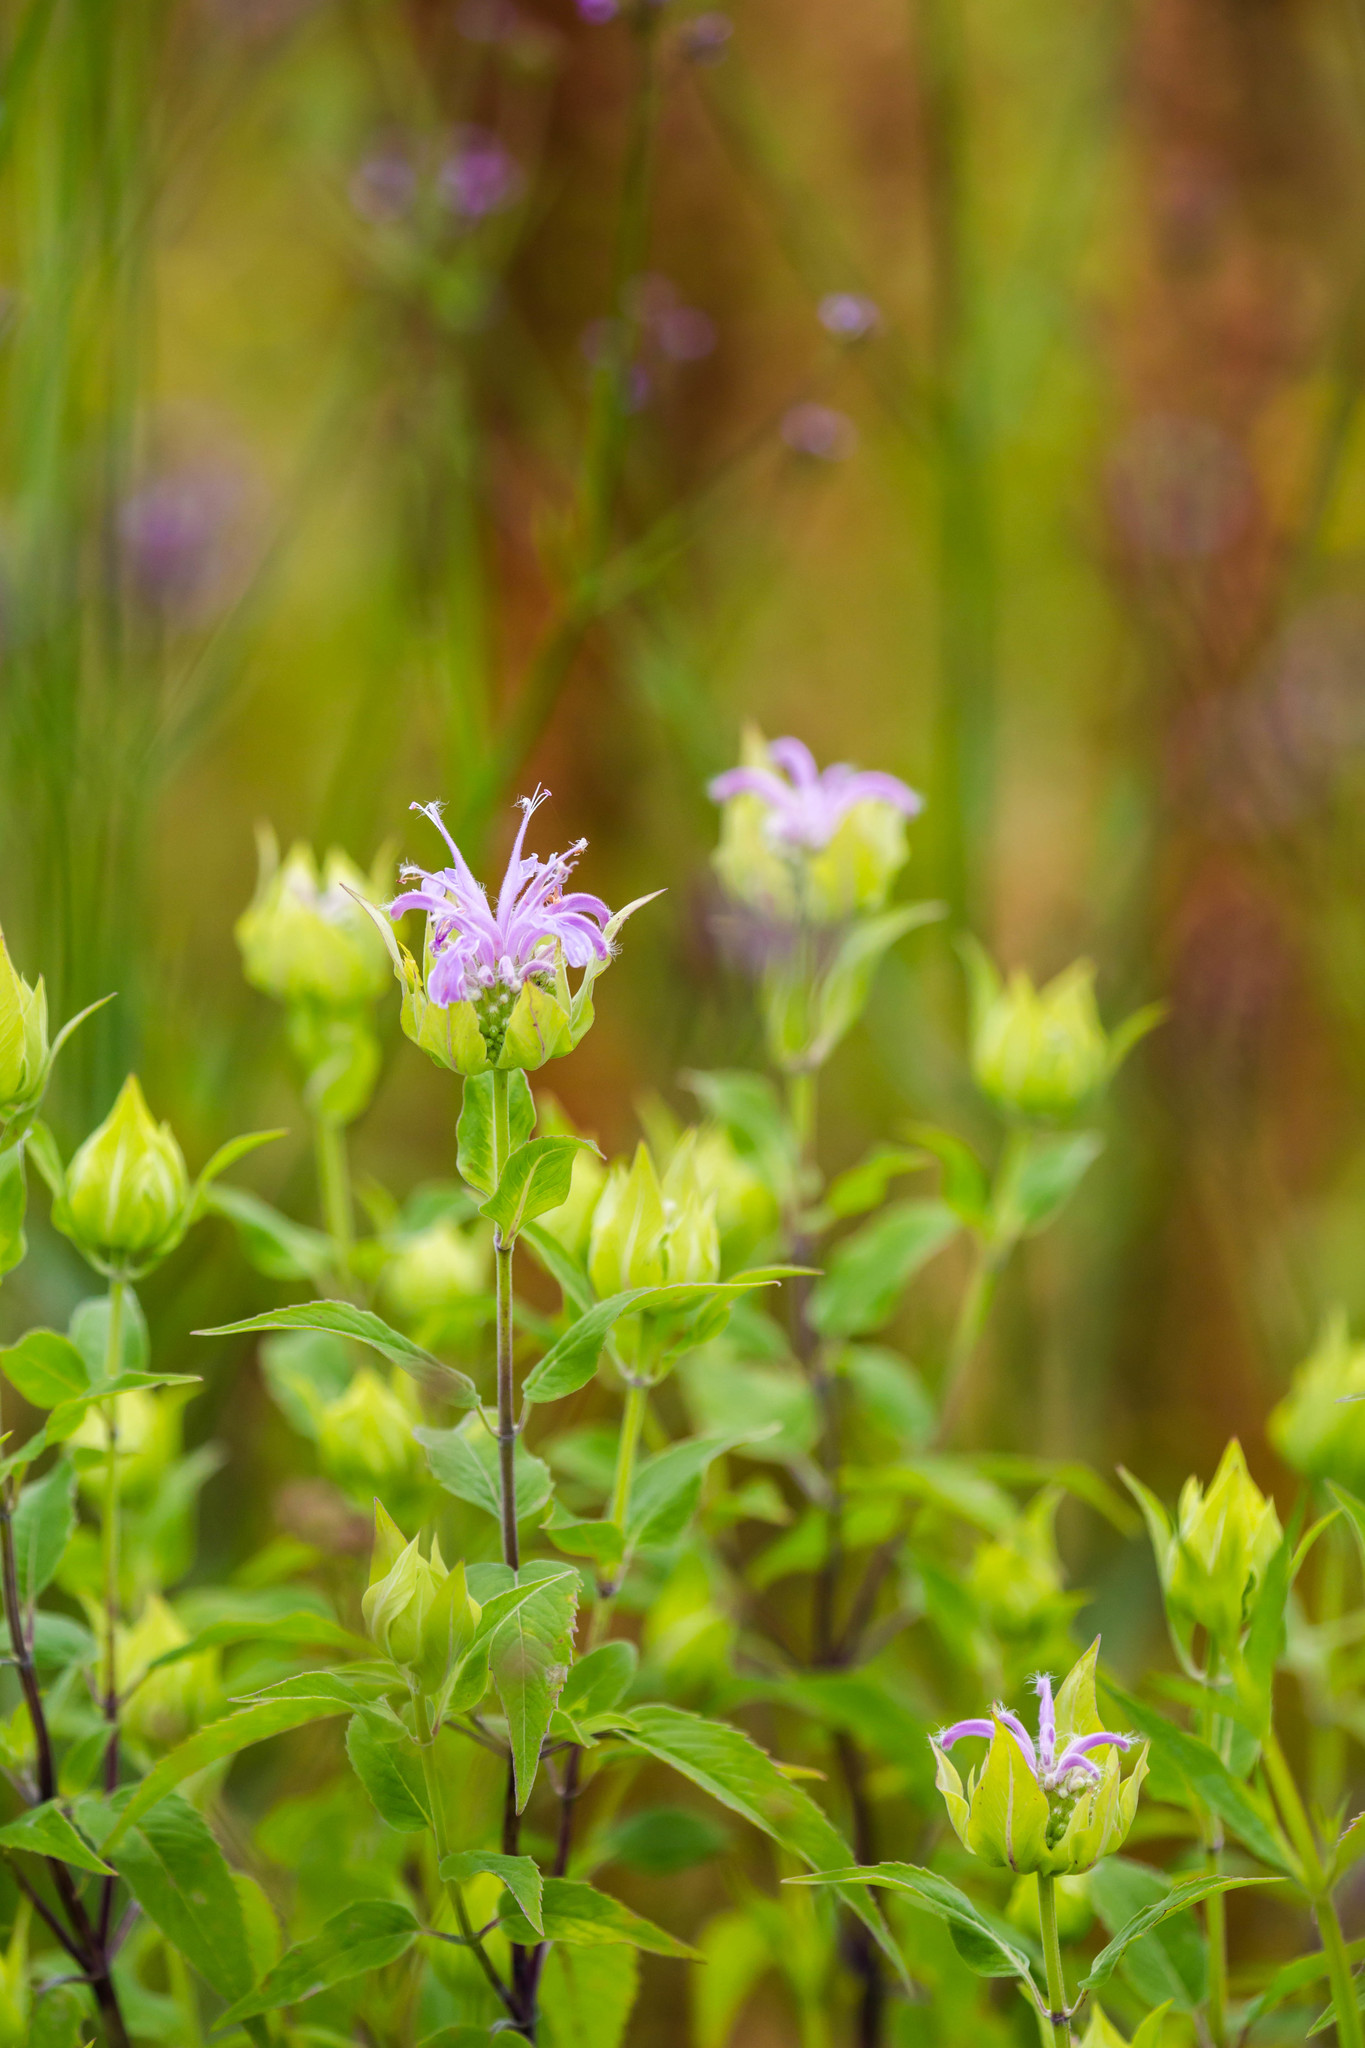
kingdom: Plantae
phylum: Tracheophyta
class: Magnoliopsida
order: Lamiales
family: Lamiaceae
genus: Monarda
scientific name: Monarda fistulosa
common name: Purple beebalm
